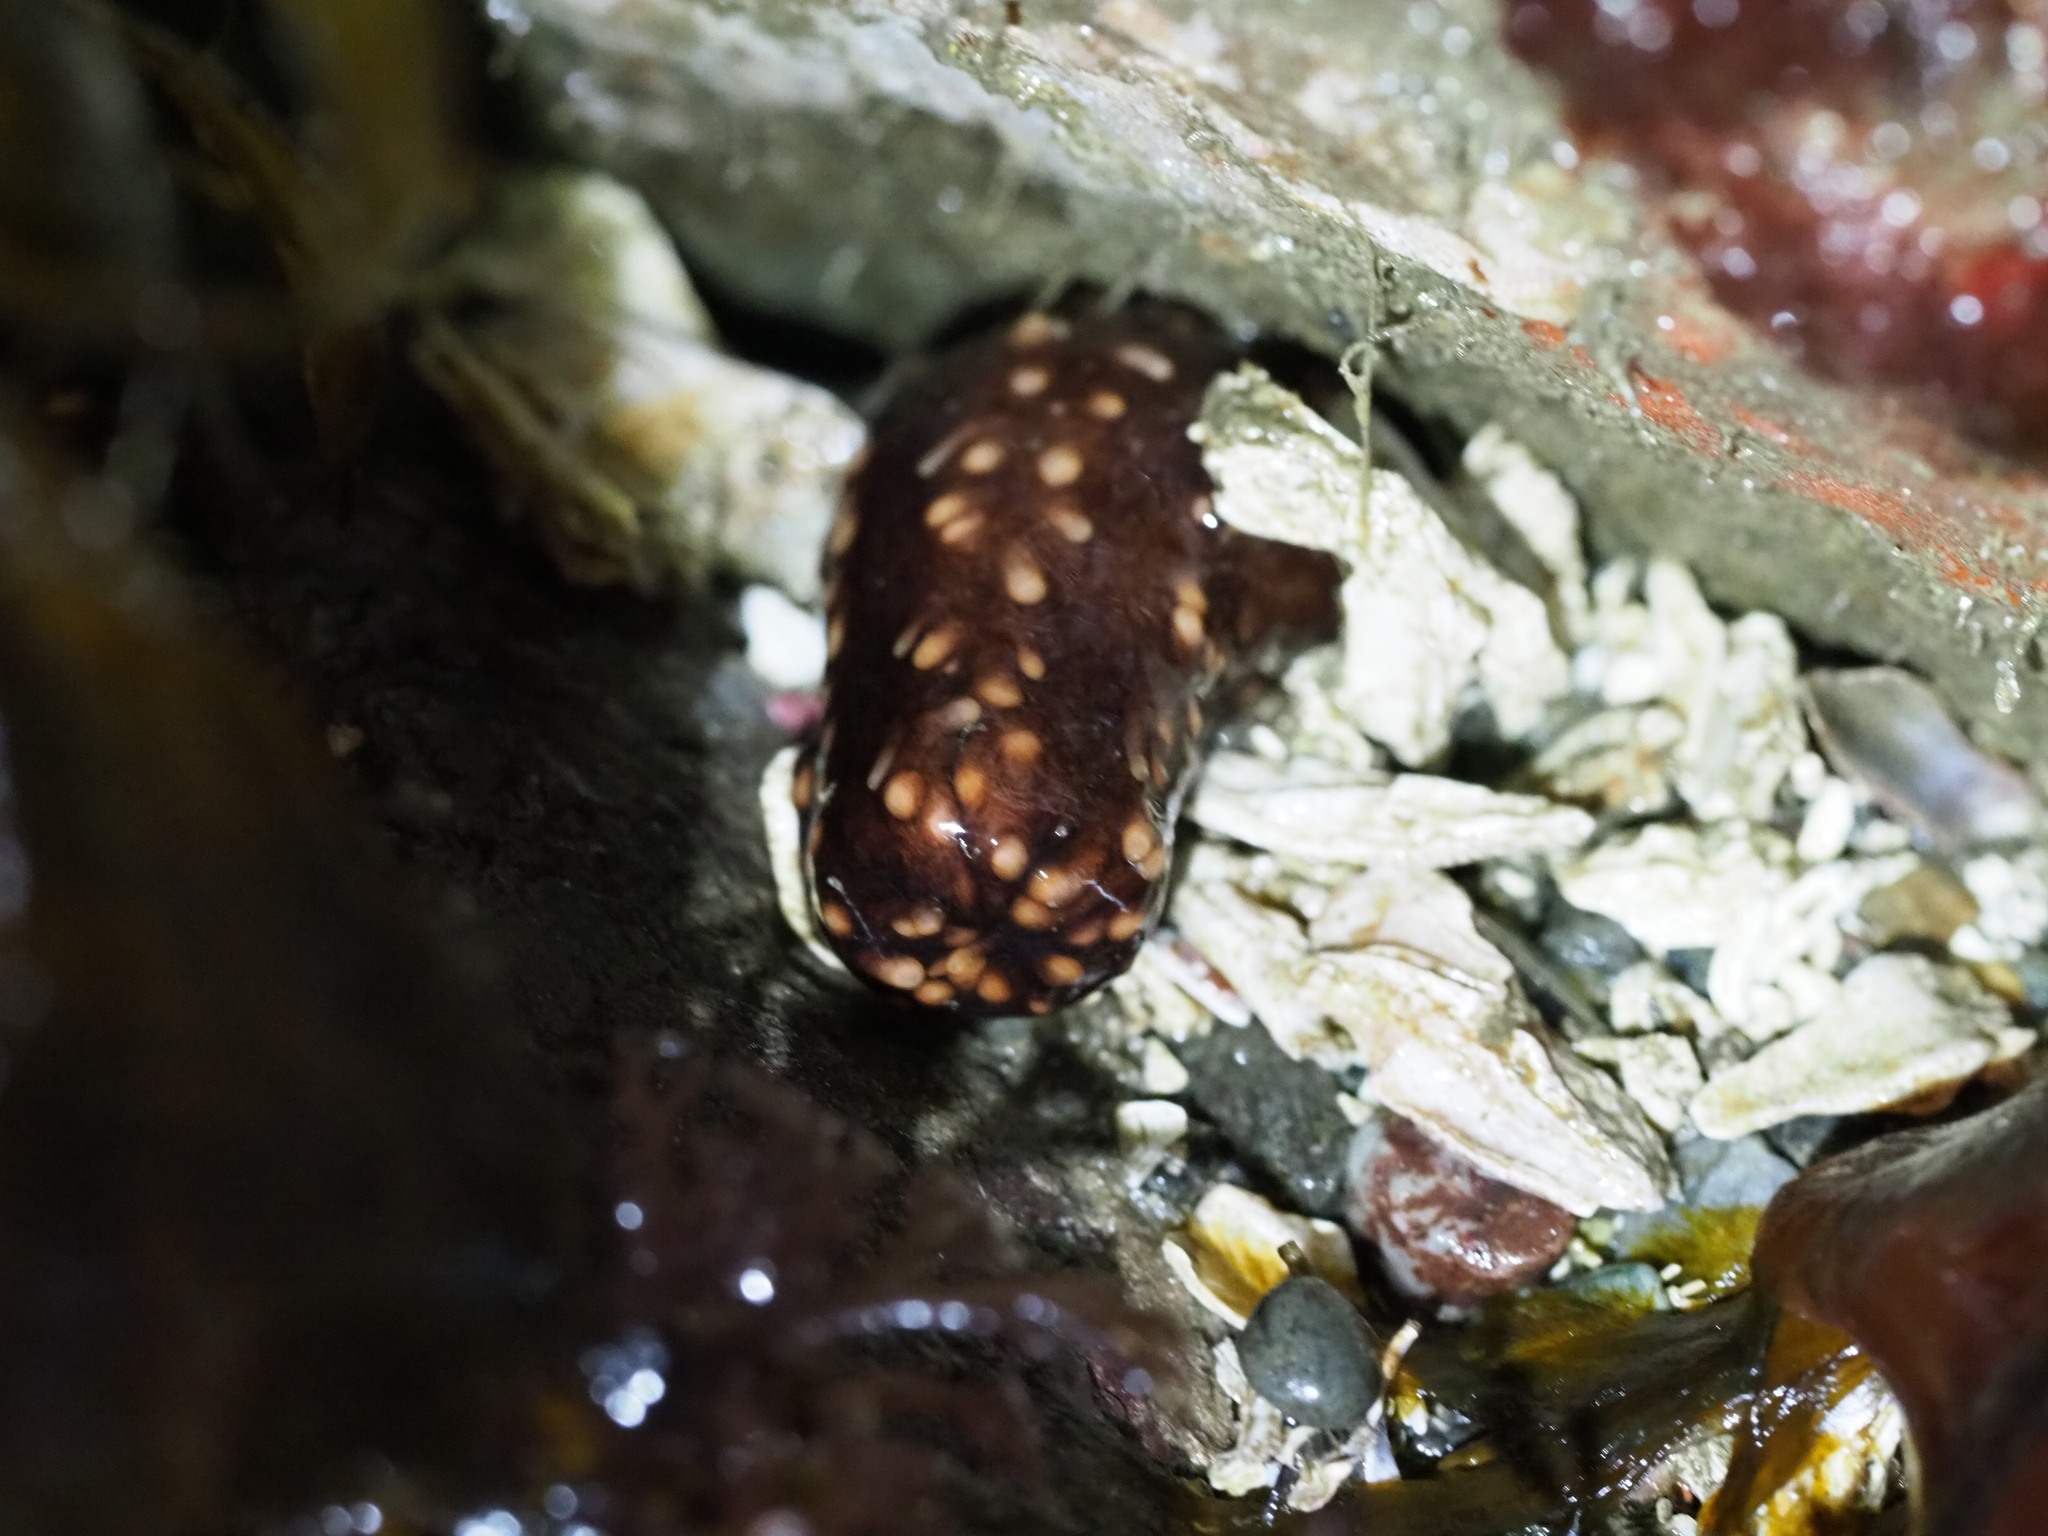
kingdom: Animalia
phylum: Echinodermata
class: Holothuroidea
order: Dendrochirotida
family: Cucumariidae
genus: Cucumaria
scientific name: Cucumaria miniata
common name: Orange sea cucumber
